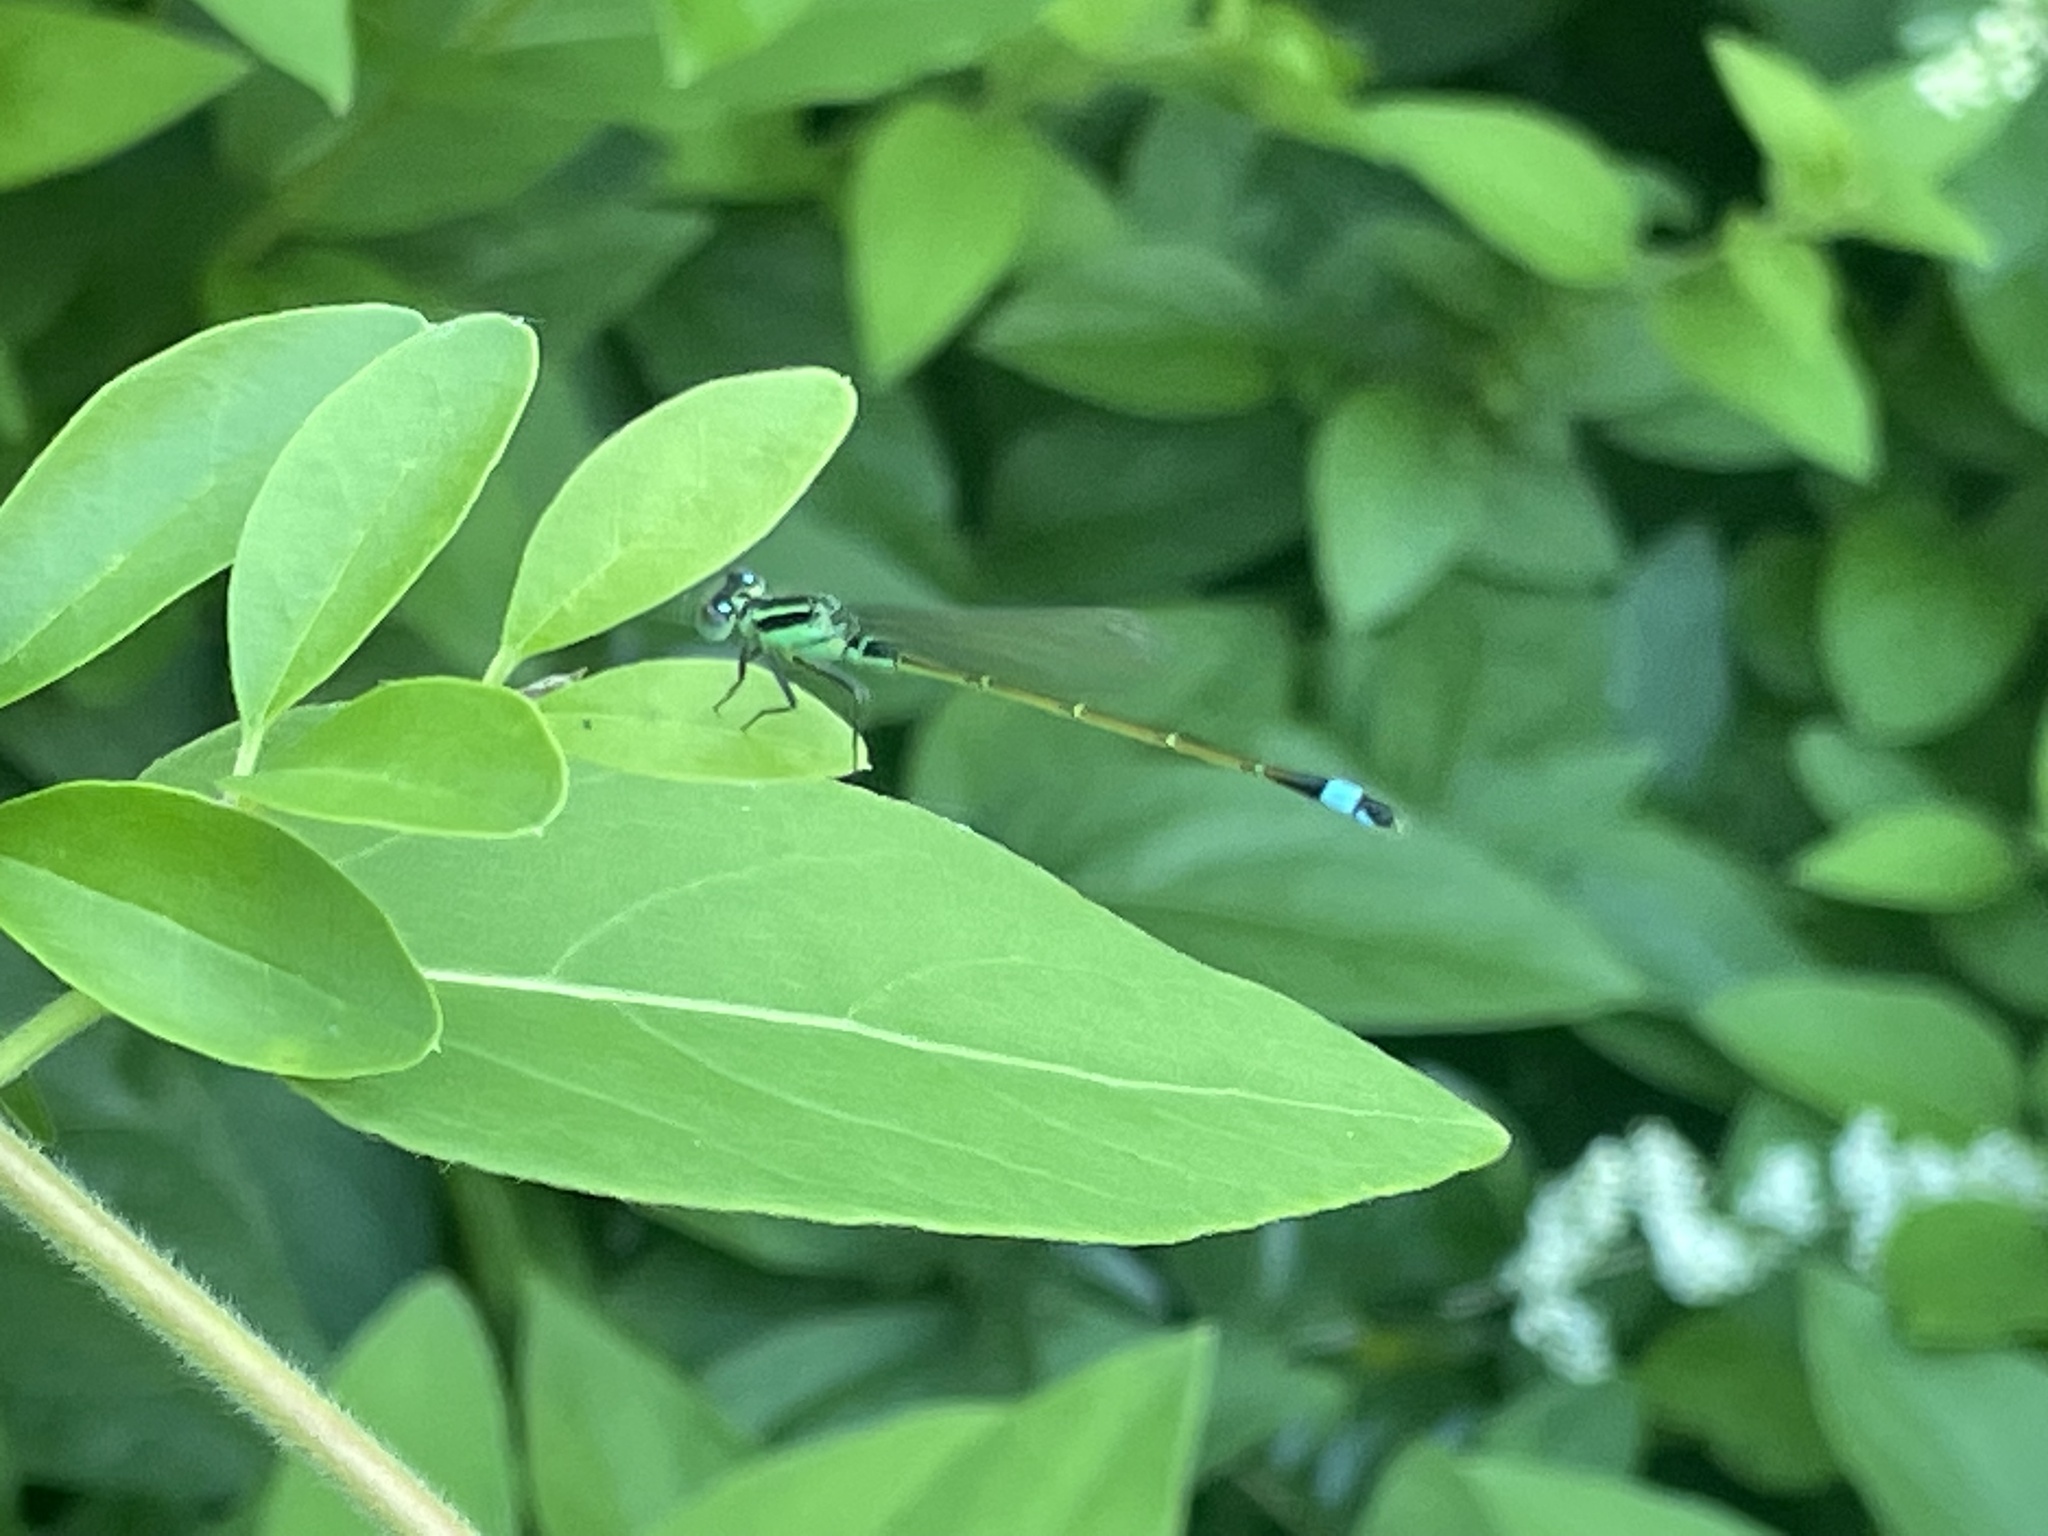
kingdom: Animalia
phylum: Arthropoda
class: Insecta
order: Odonata
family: Coenagrionidae
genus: Ischnura
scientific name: Ischnura ramburii
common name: Rambur's forktail
